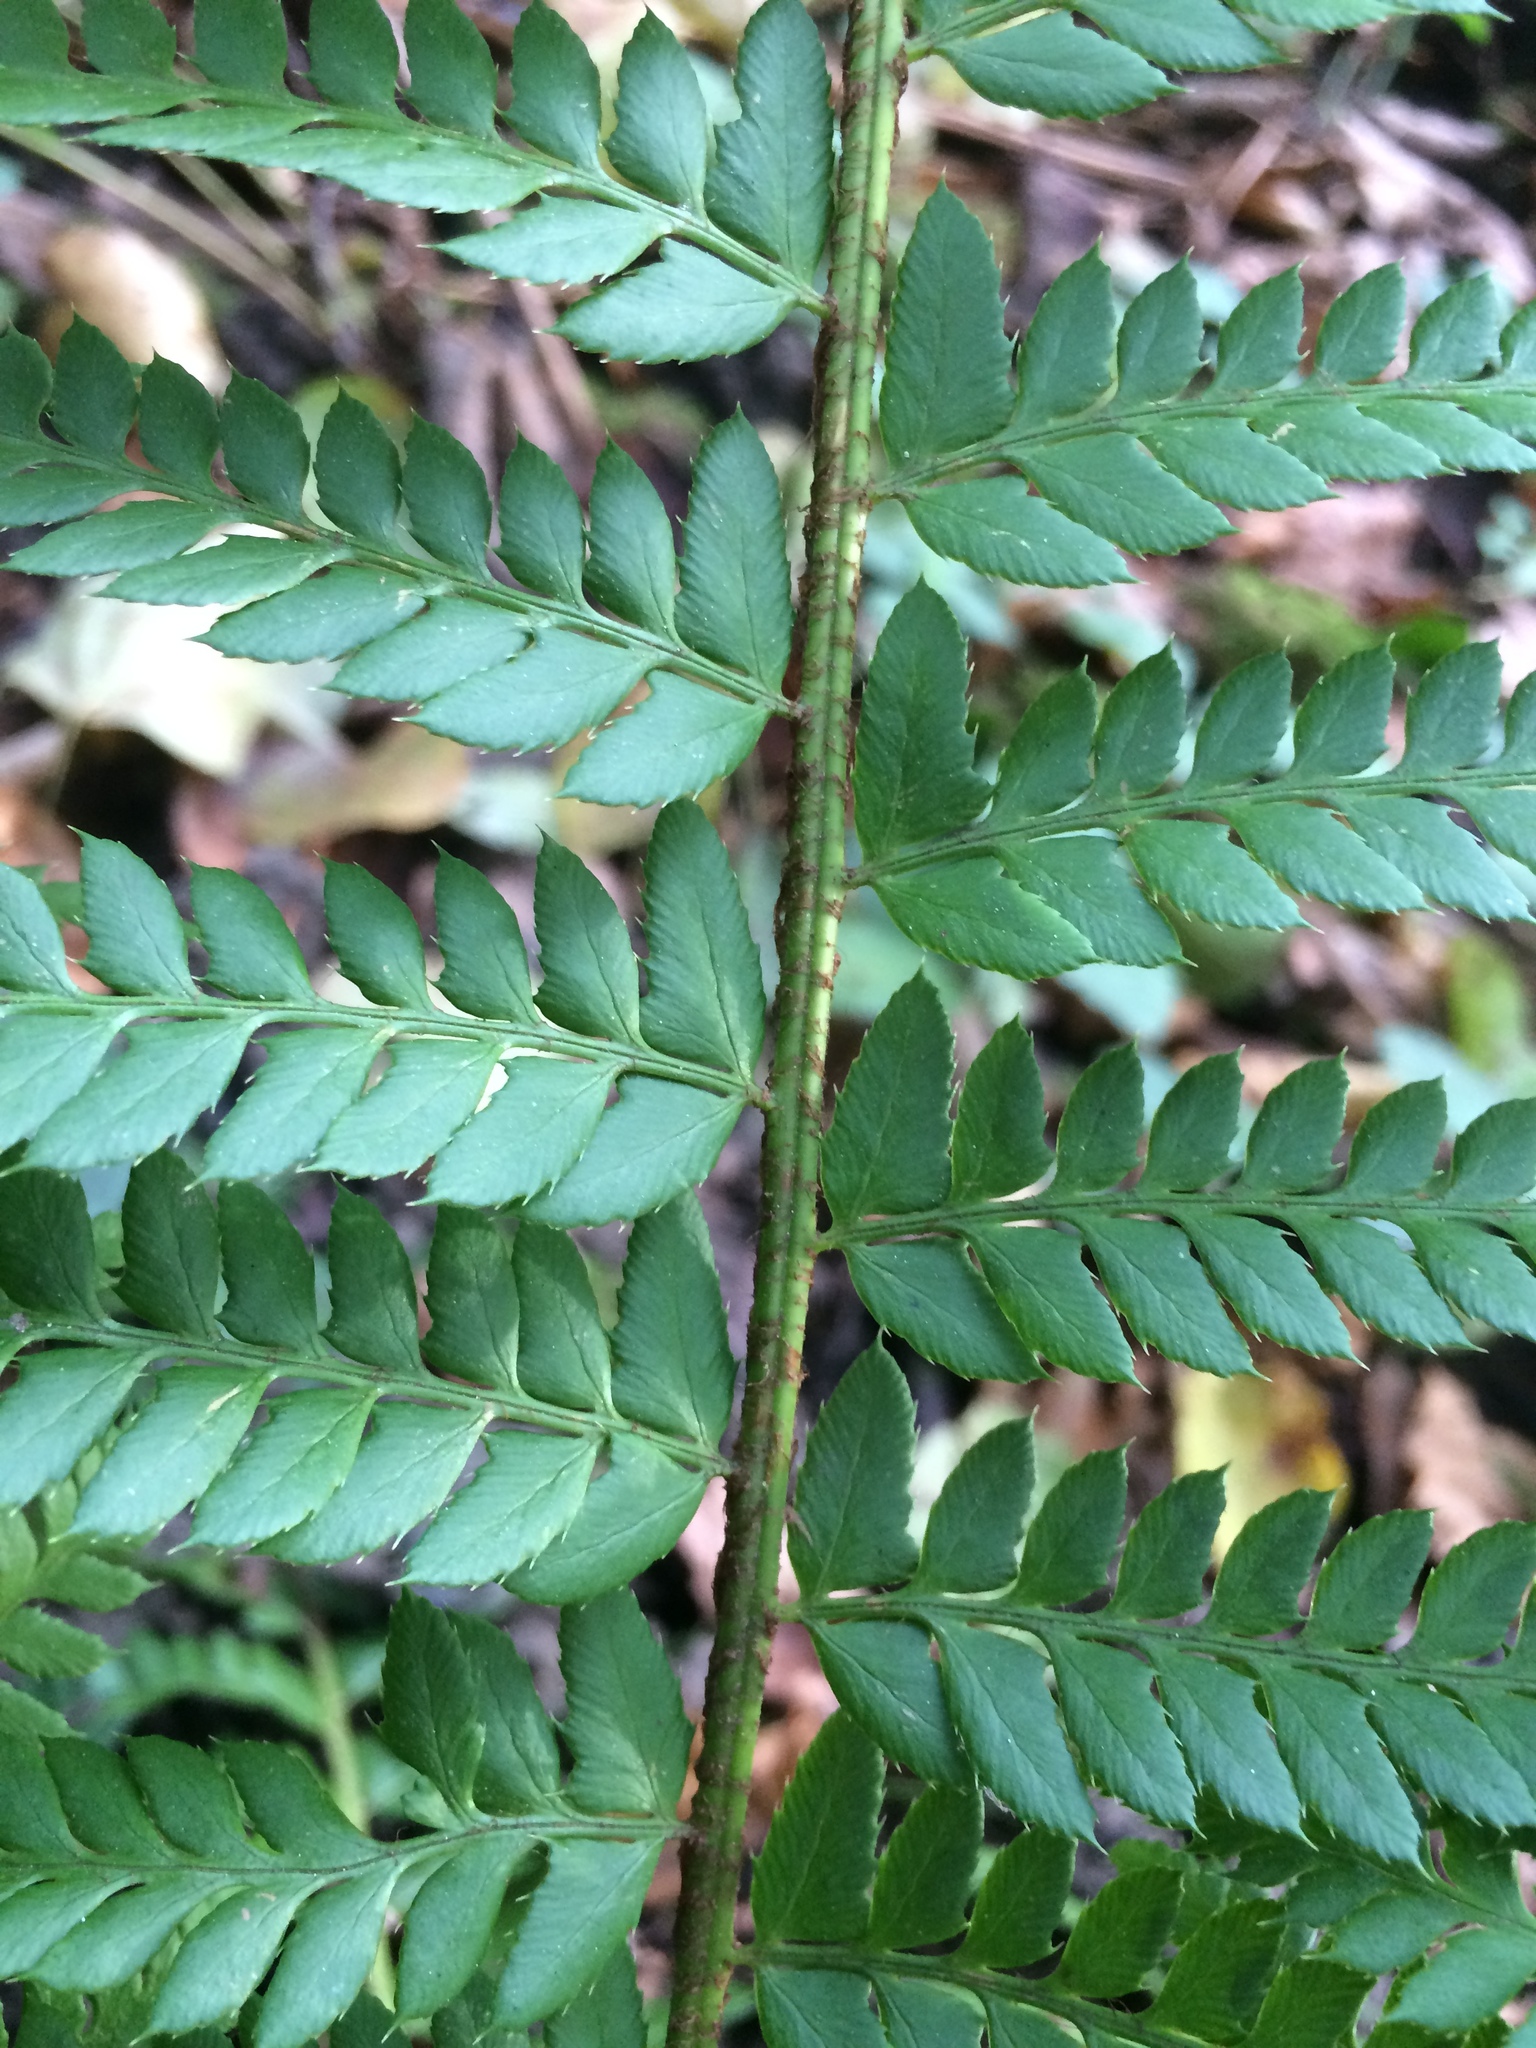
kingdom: Plantae
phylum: Tracheophyta
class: Polypodiopsida
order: Polypodiales
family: Dryopteridaceae
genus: Polystichum
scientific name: Polystichum aculeatum
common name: Hard shield-fern
